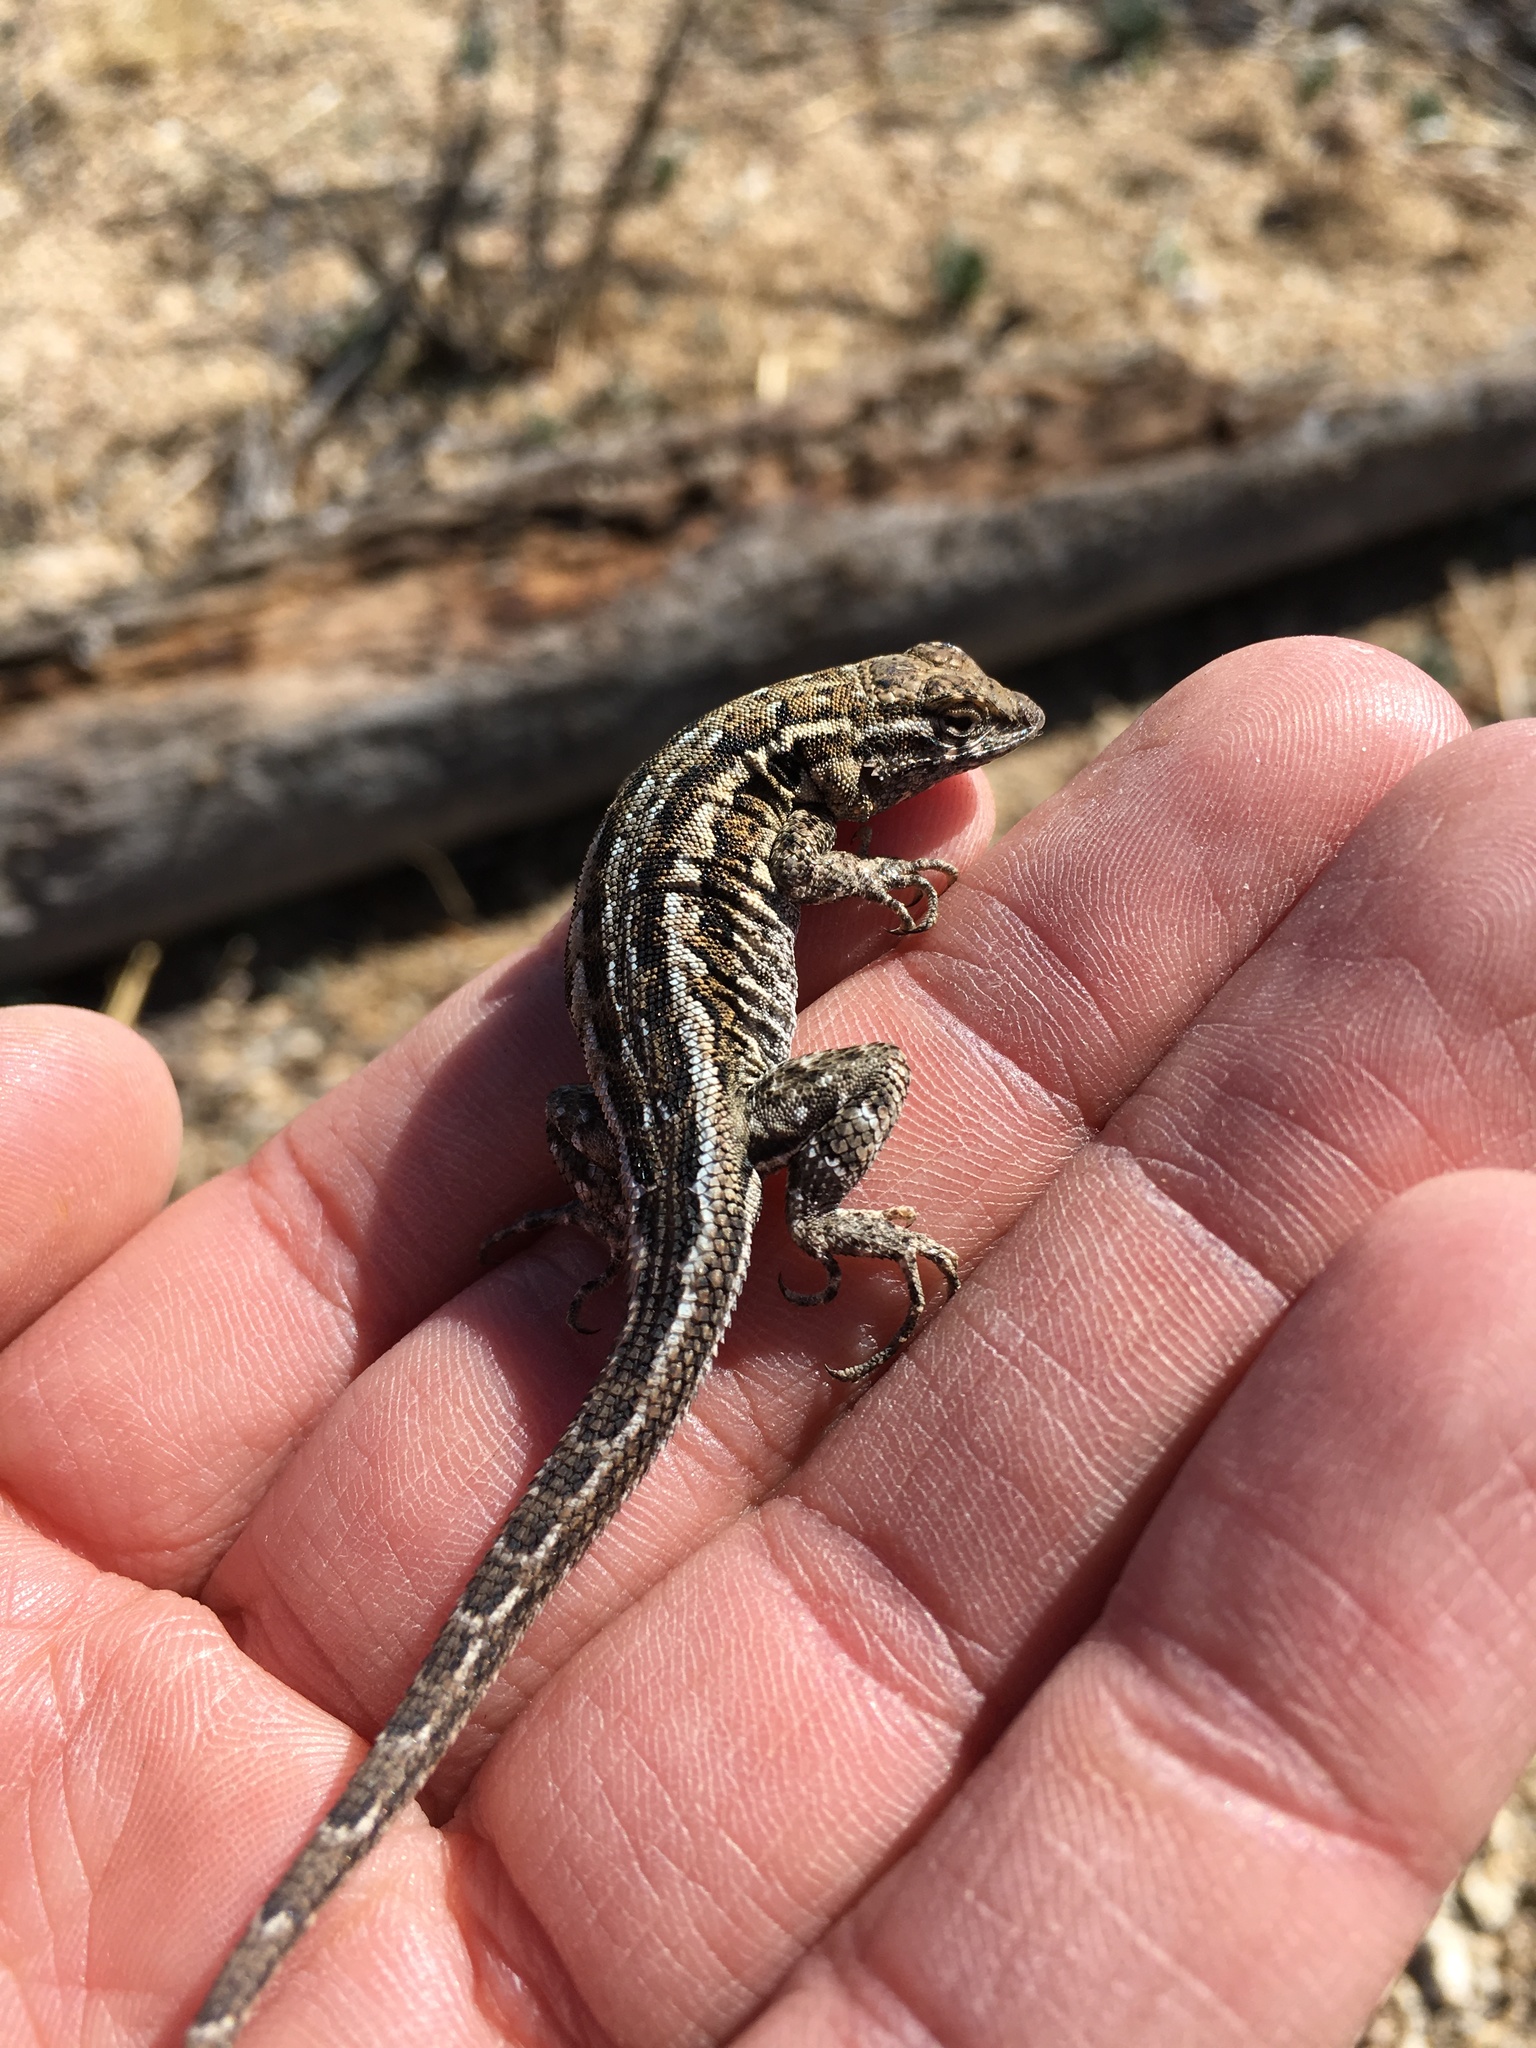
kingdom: Animalia
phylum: Chordata
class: Squamata
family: Phrynosomatidae
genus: Uta
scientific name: Uta stansburiana
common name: Side-blotched lizard
